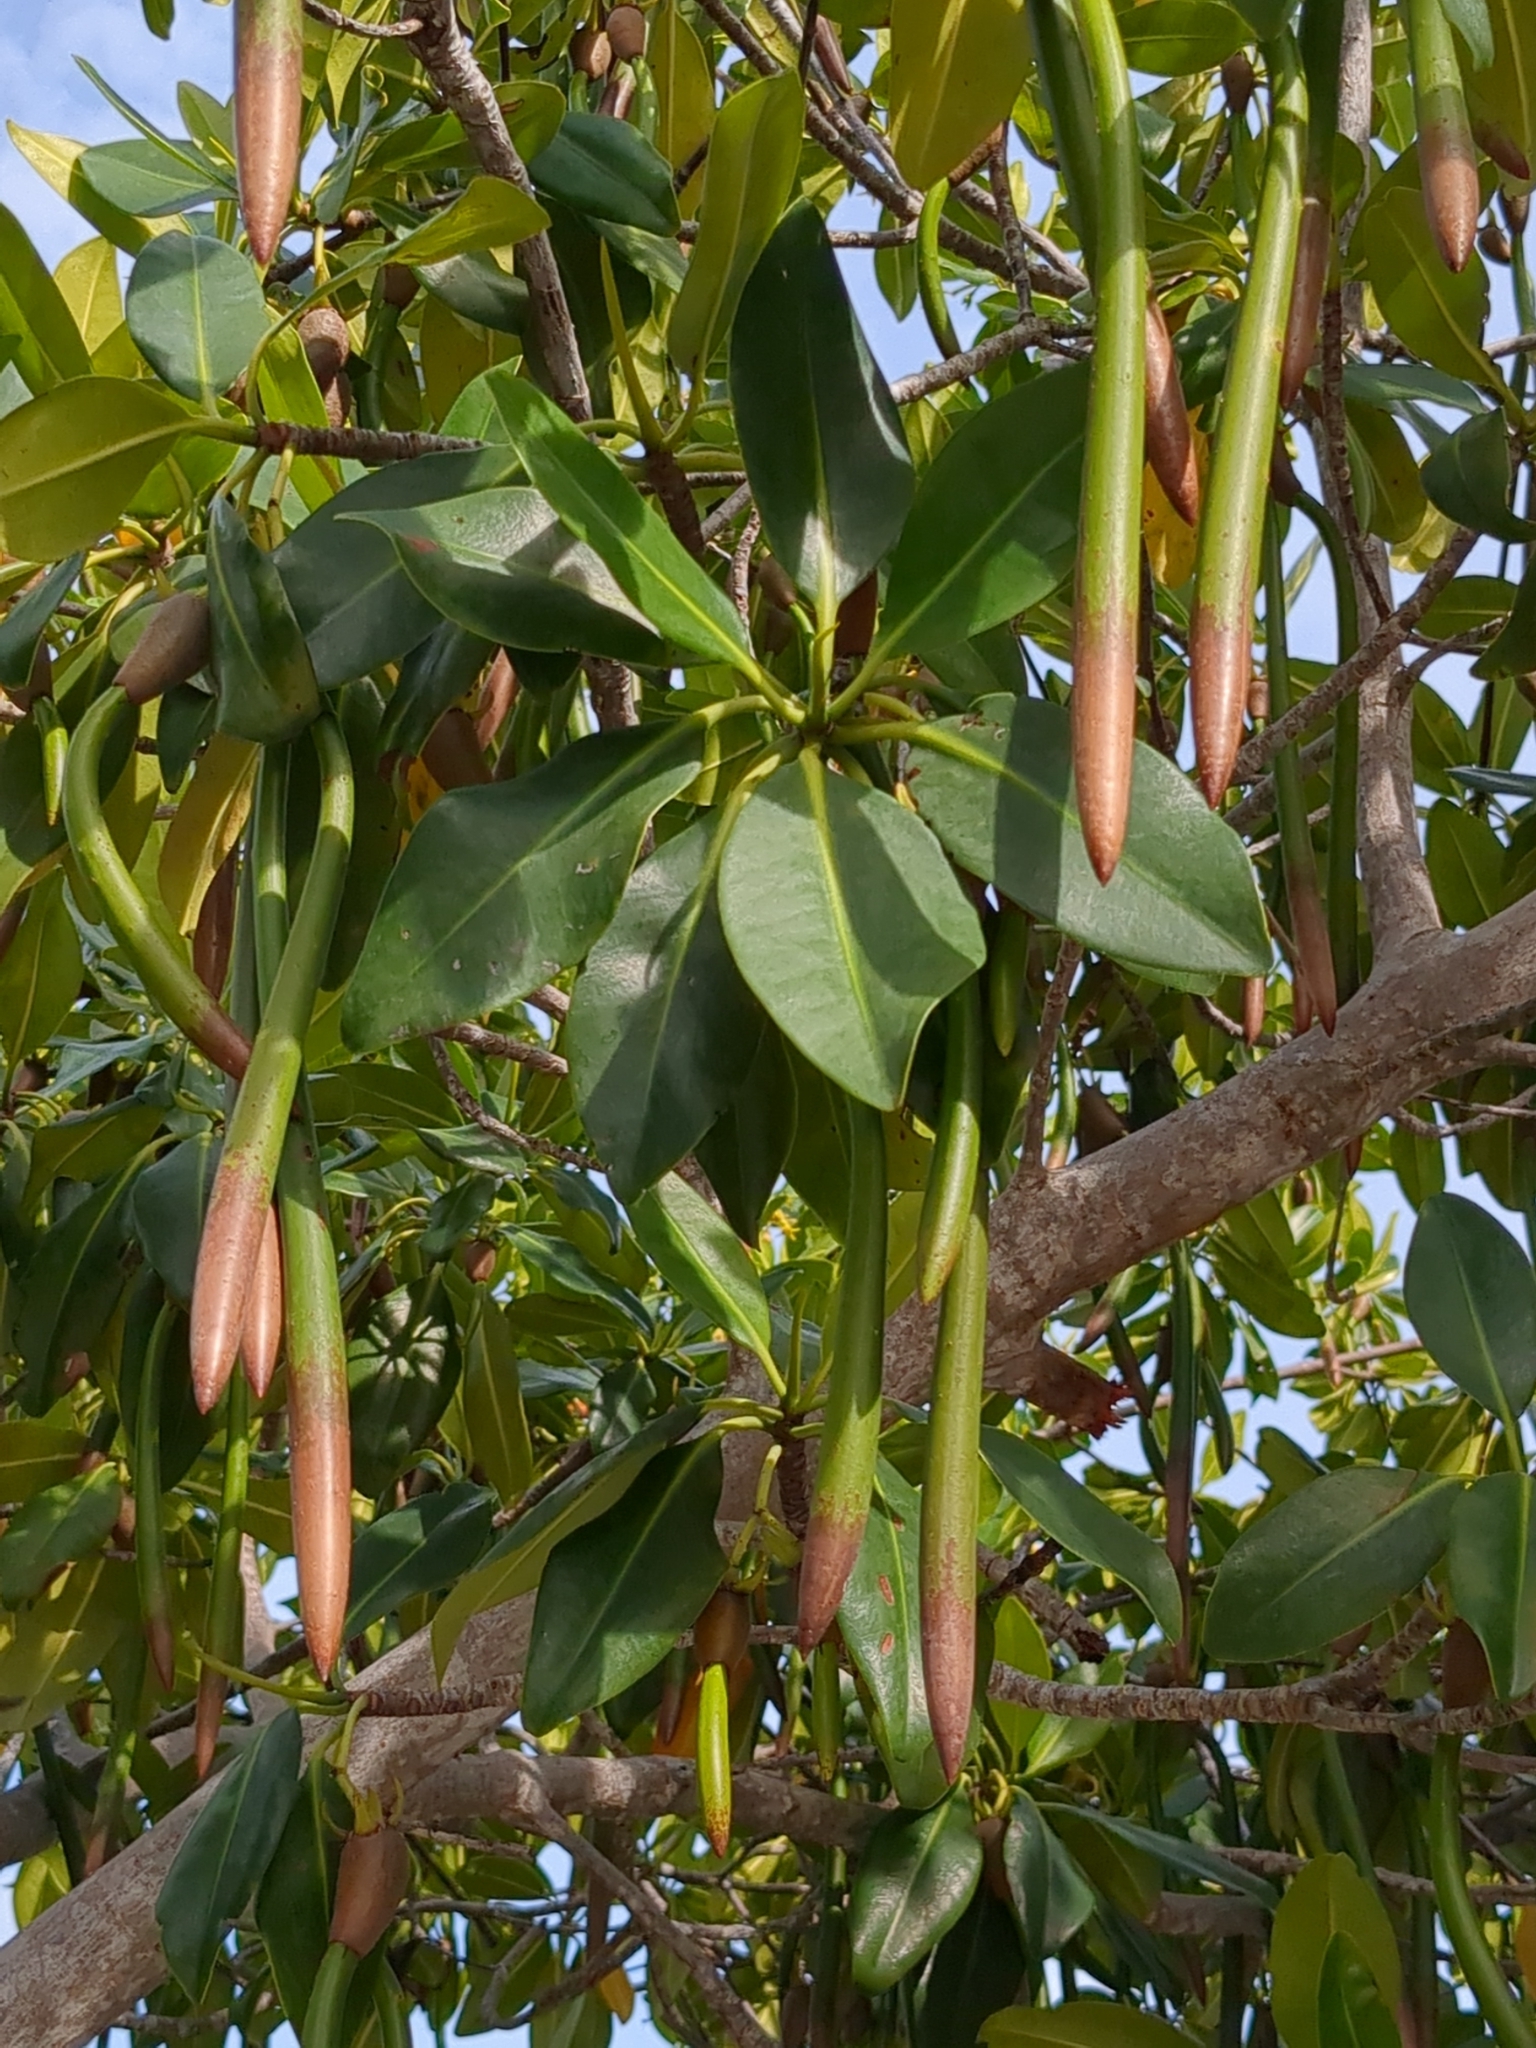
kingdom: Plantae
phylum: Tracheophyta
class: Magnoliopsida
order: Malpighiales
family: Rhizophoraceae
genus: Rhizophora
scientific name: Rhizophora mangle
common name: Red mangrove
